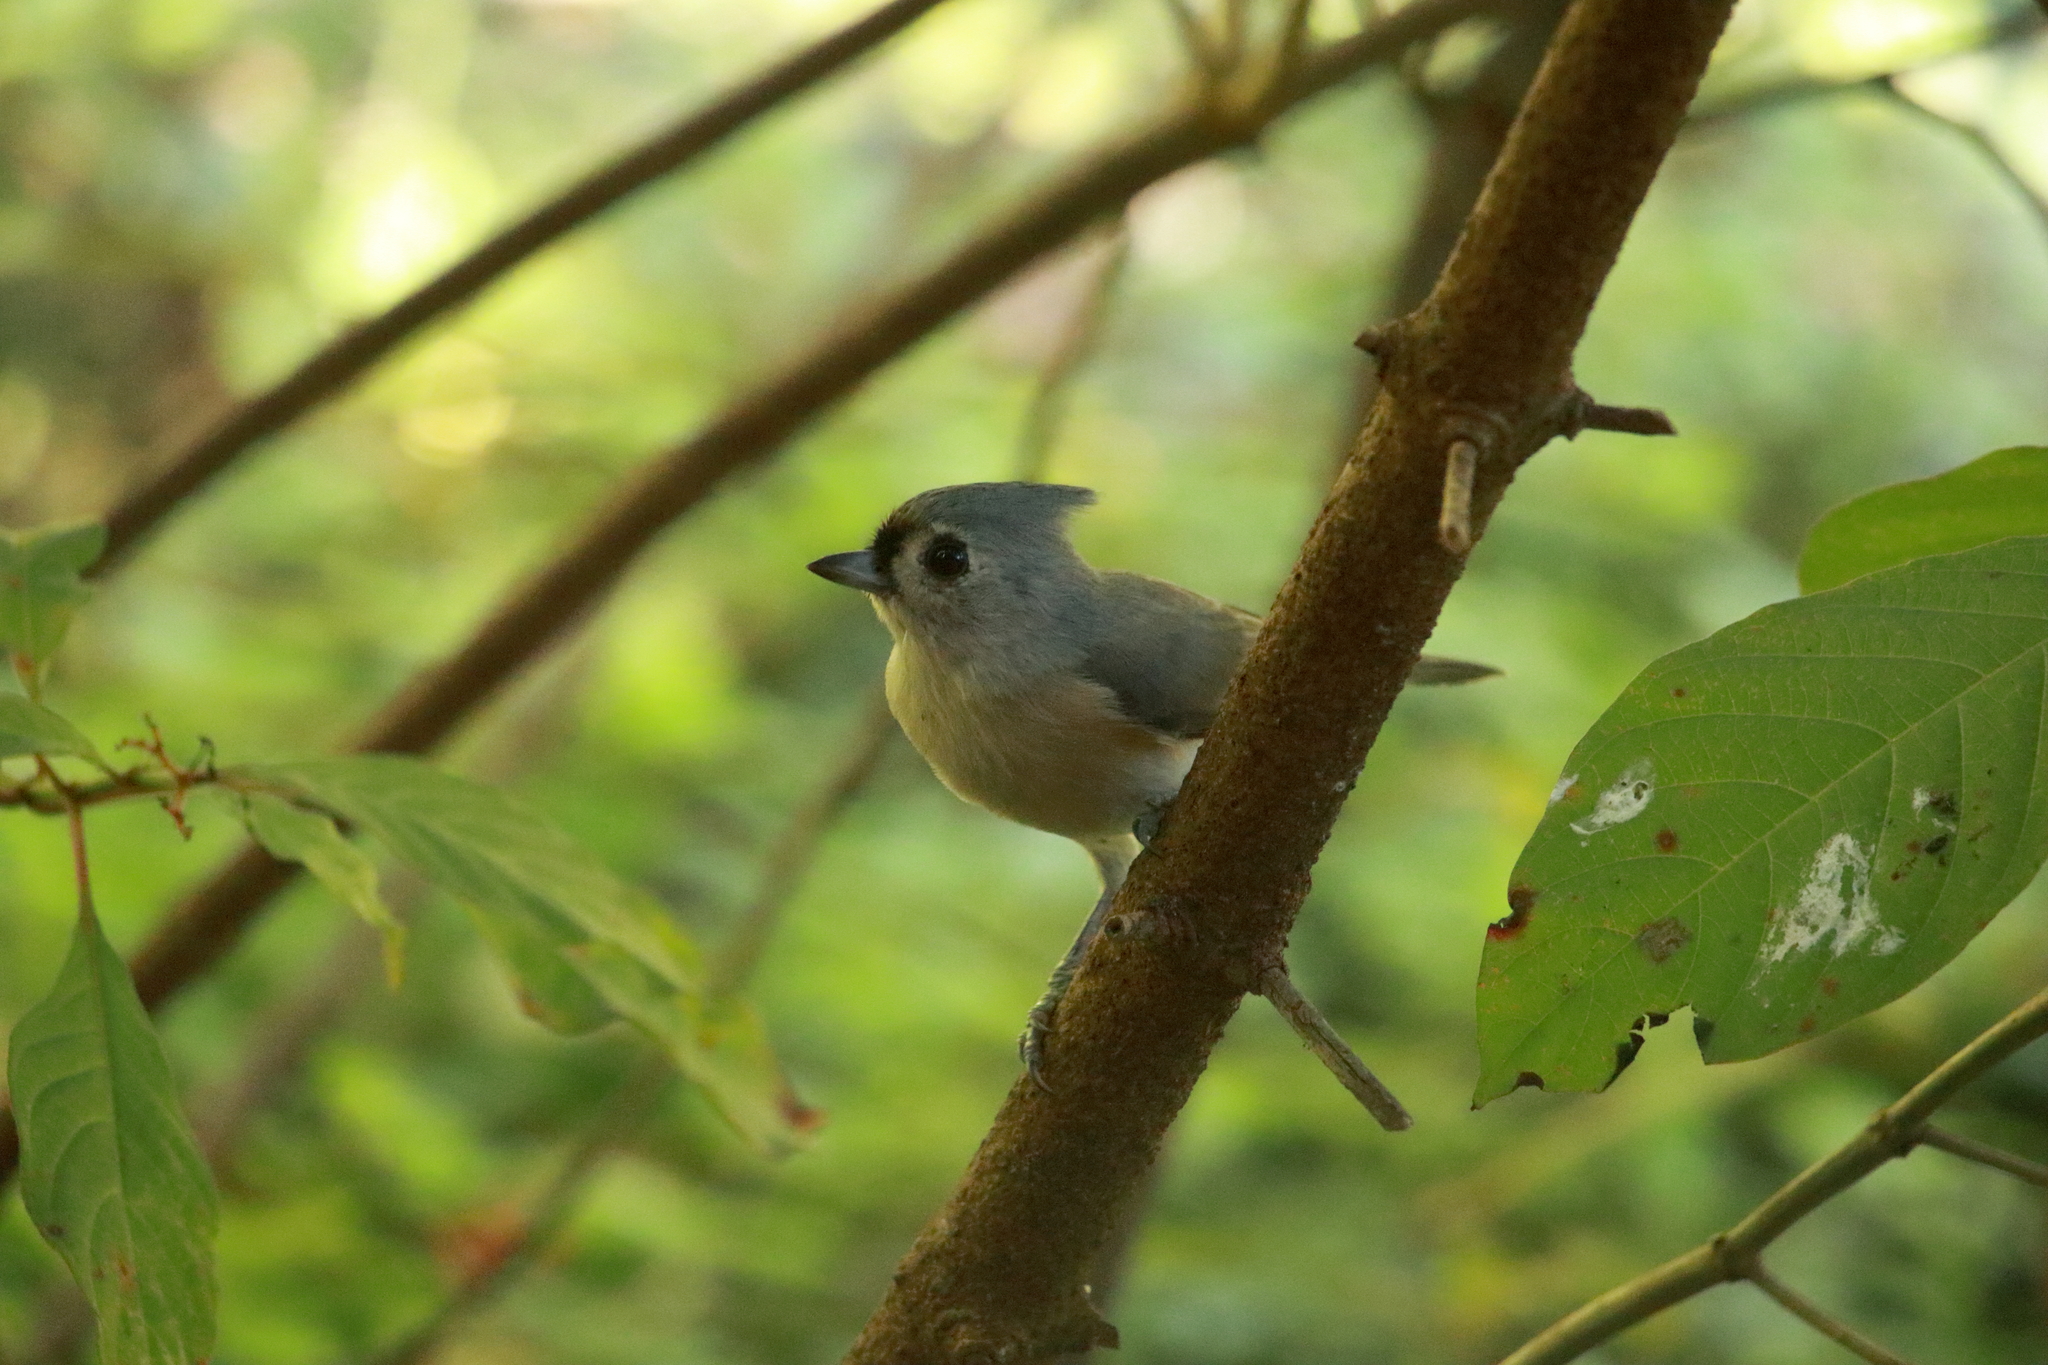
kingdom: Animalia
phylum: Chordata
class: Aves
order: Passeriformes
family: Paridae
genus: Baeolophus
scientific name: Baeolophus bicolor
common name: Tufted titmouse
